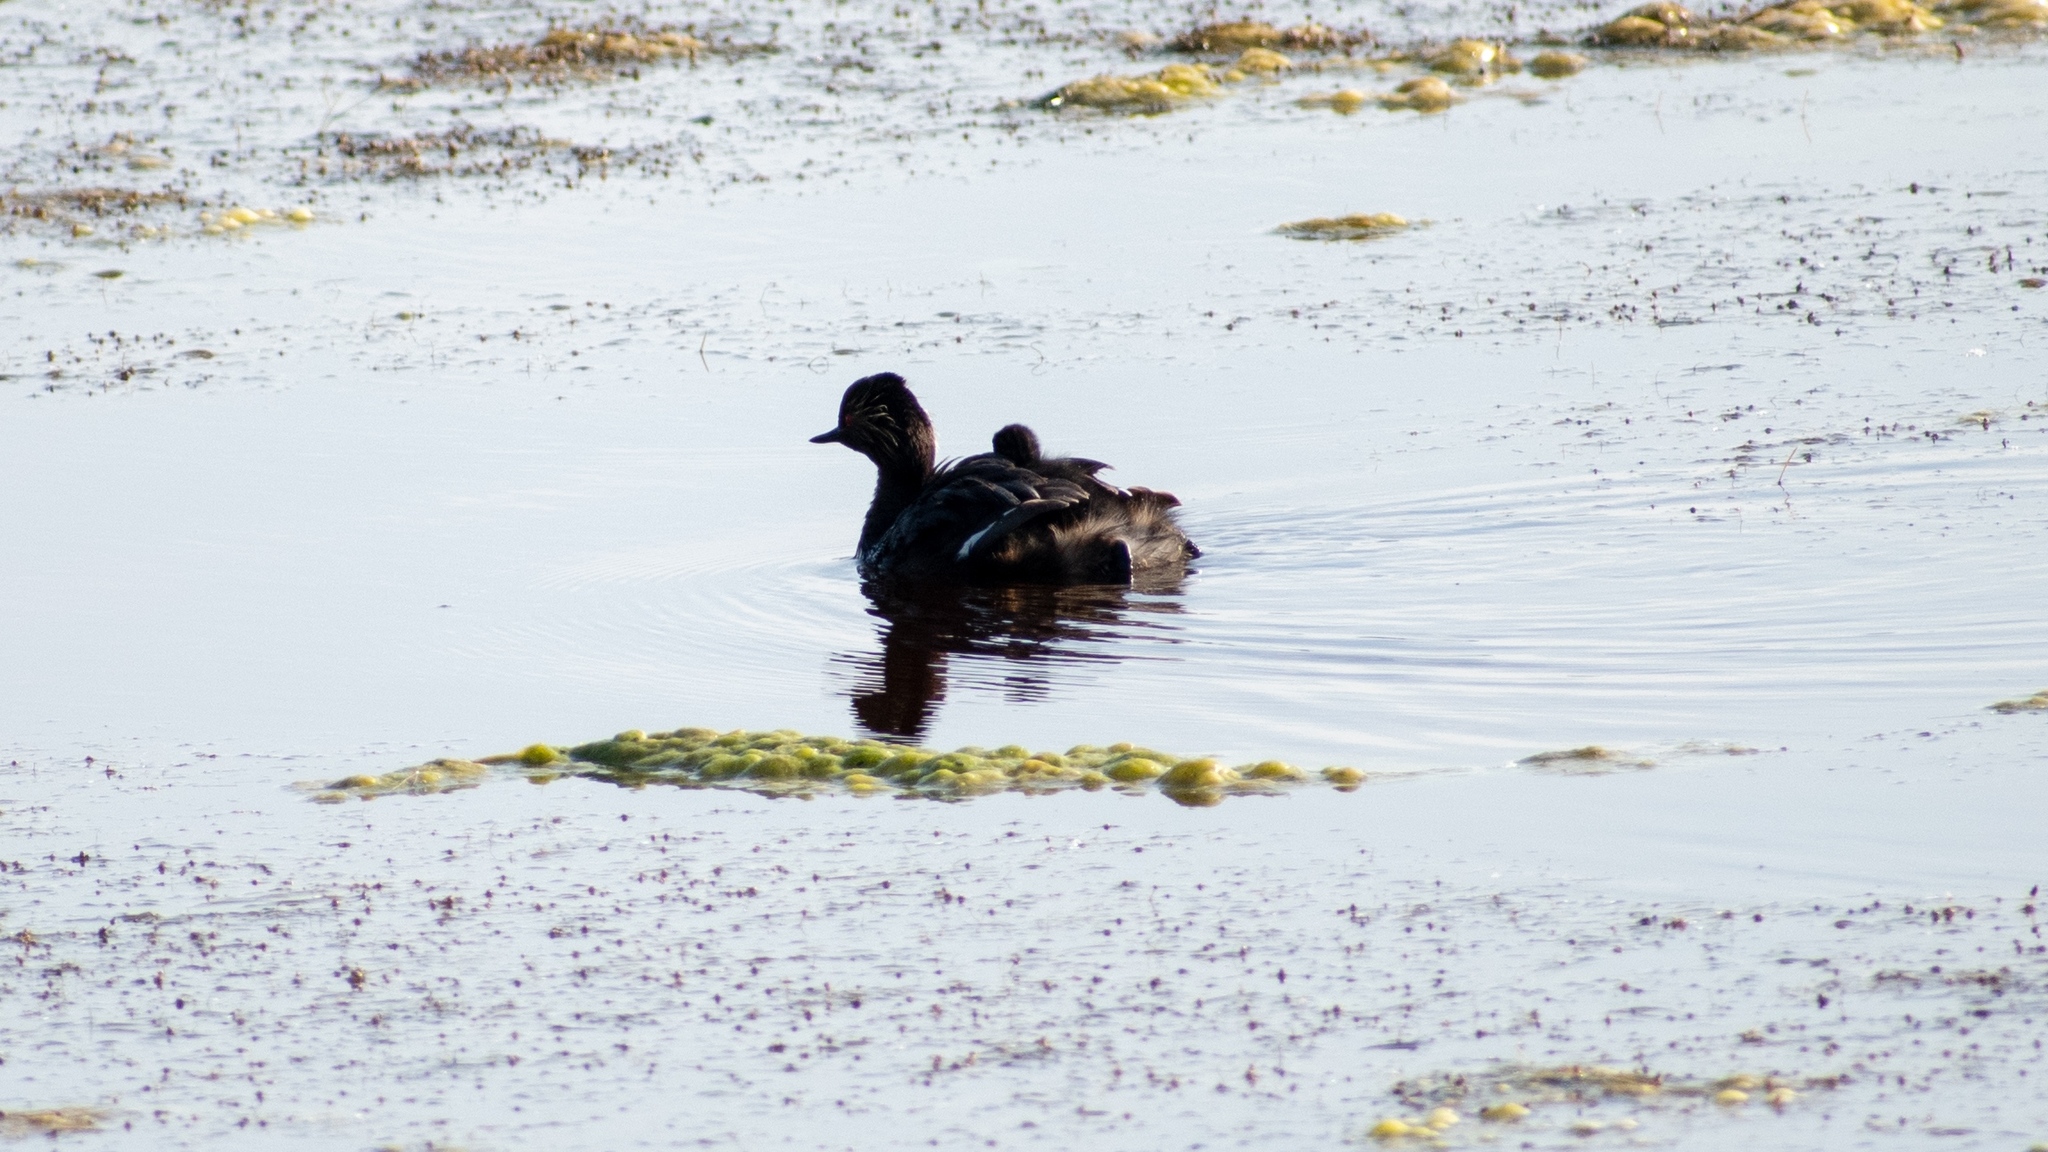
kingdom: Animalia
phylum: Chordata
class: Aves
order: Podicipediformes
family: Podicipedidae
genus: Podiceps
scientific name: Podiceps nigricollis
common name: Black-necked grebe
